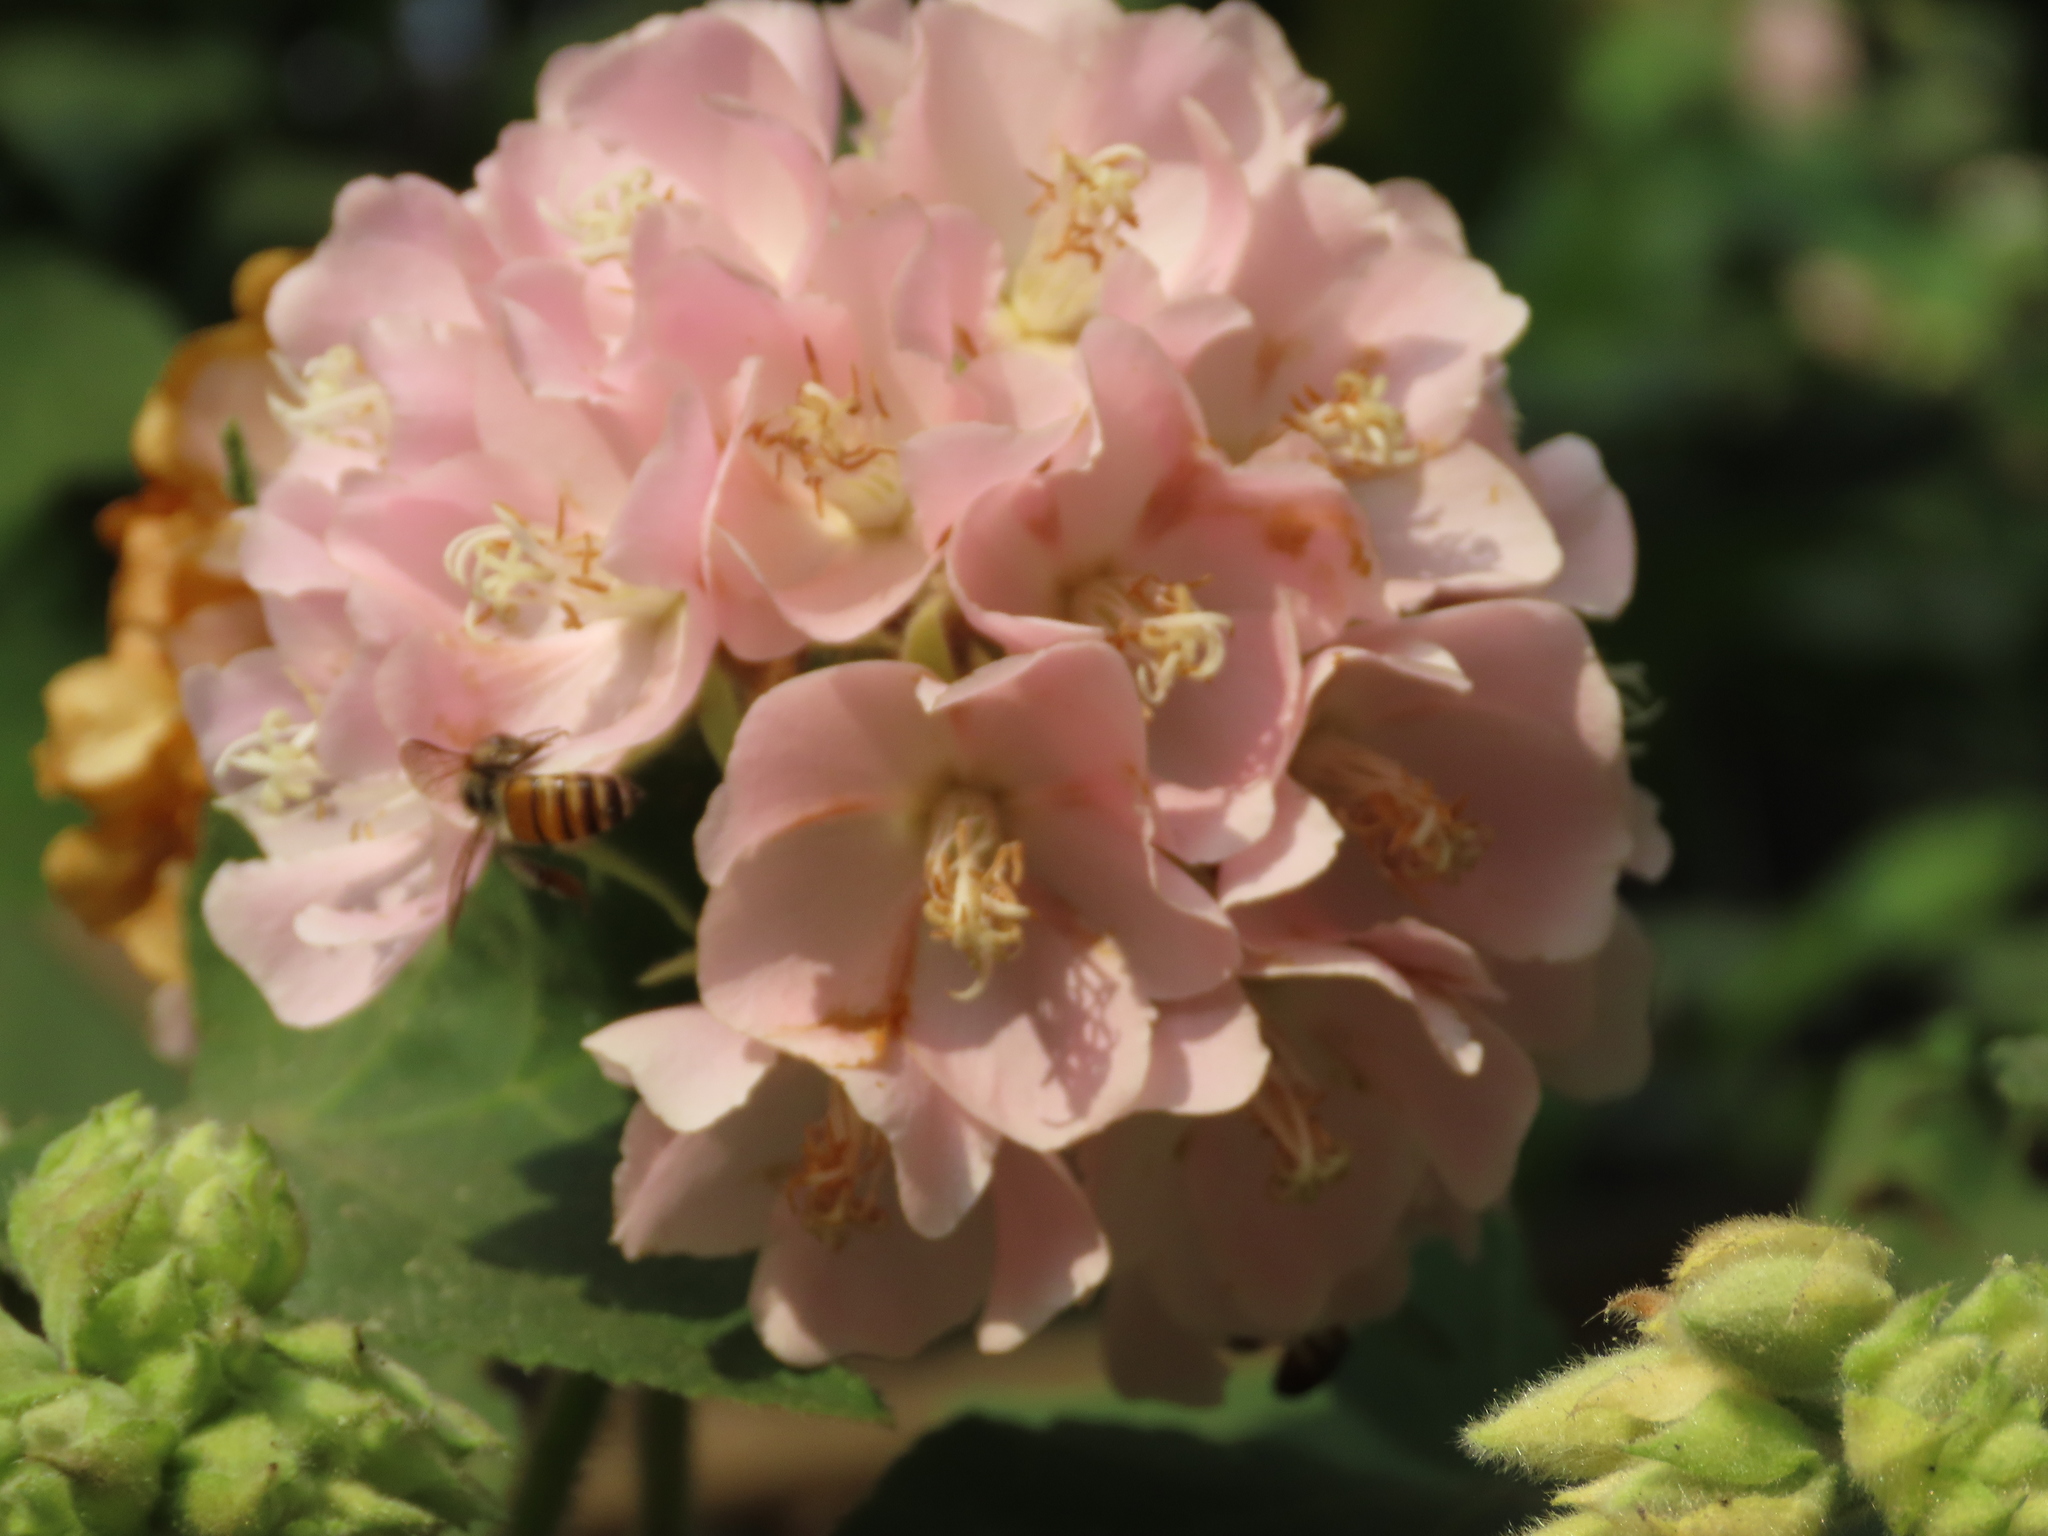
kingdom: Animalia
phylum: Arthropoda
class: Insecta
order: Hymenoptera
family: Apidae
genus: Apis
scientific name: Apis cerana
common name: Honey bee
